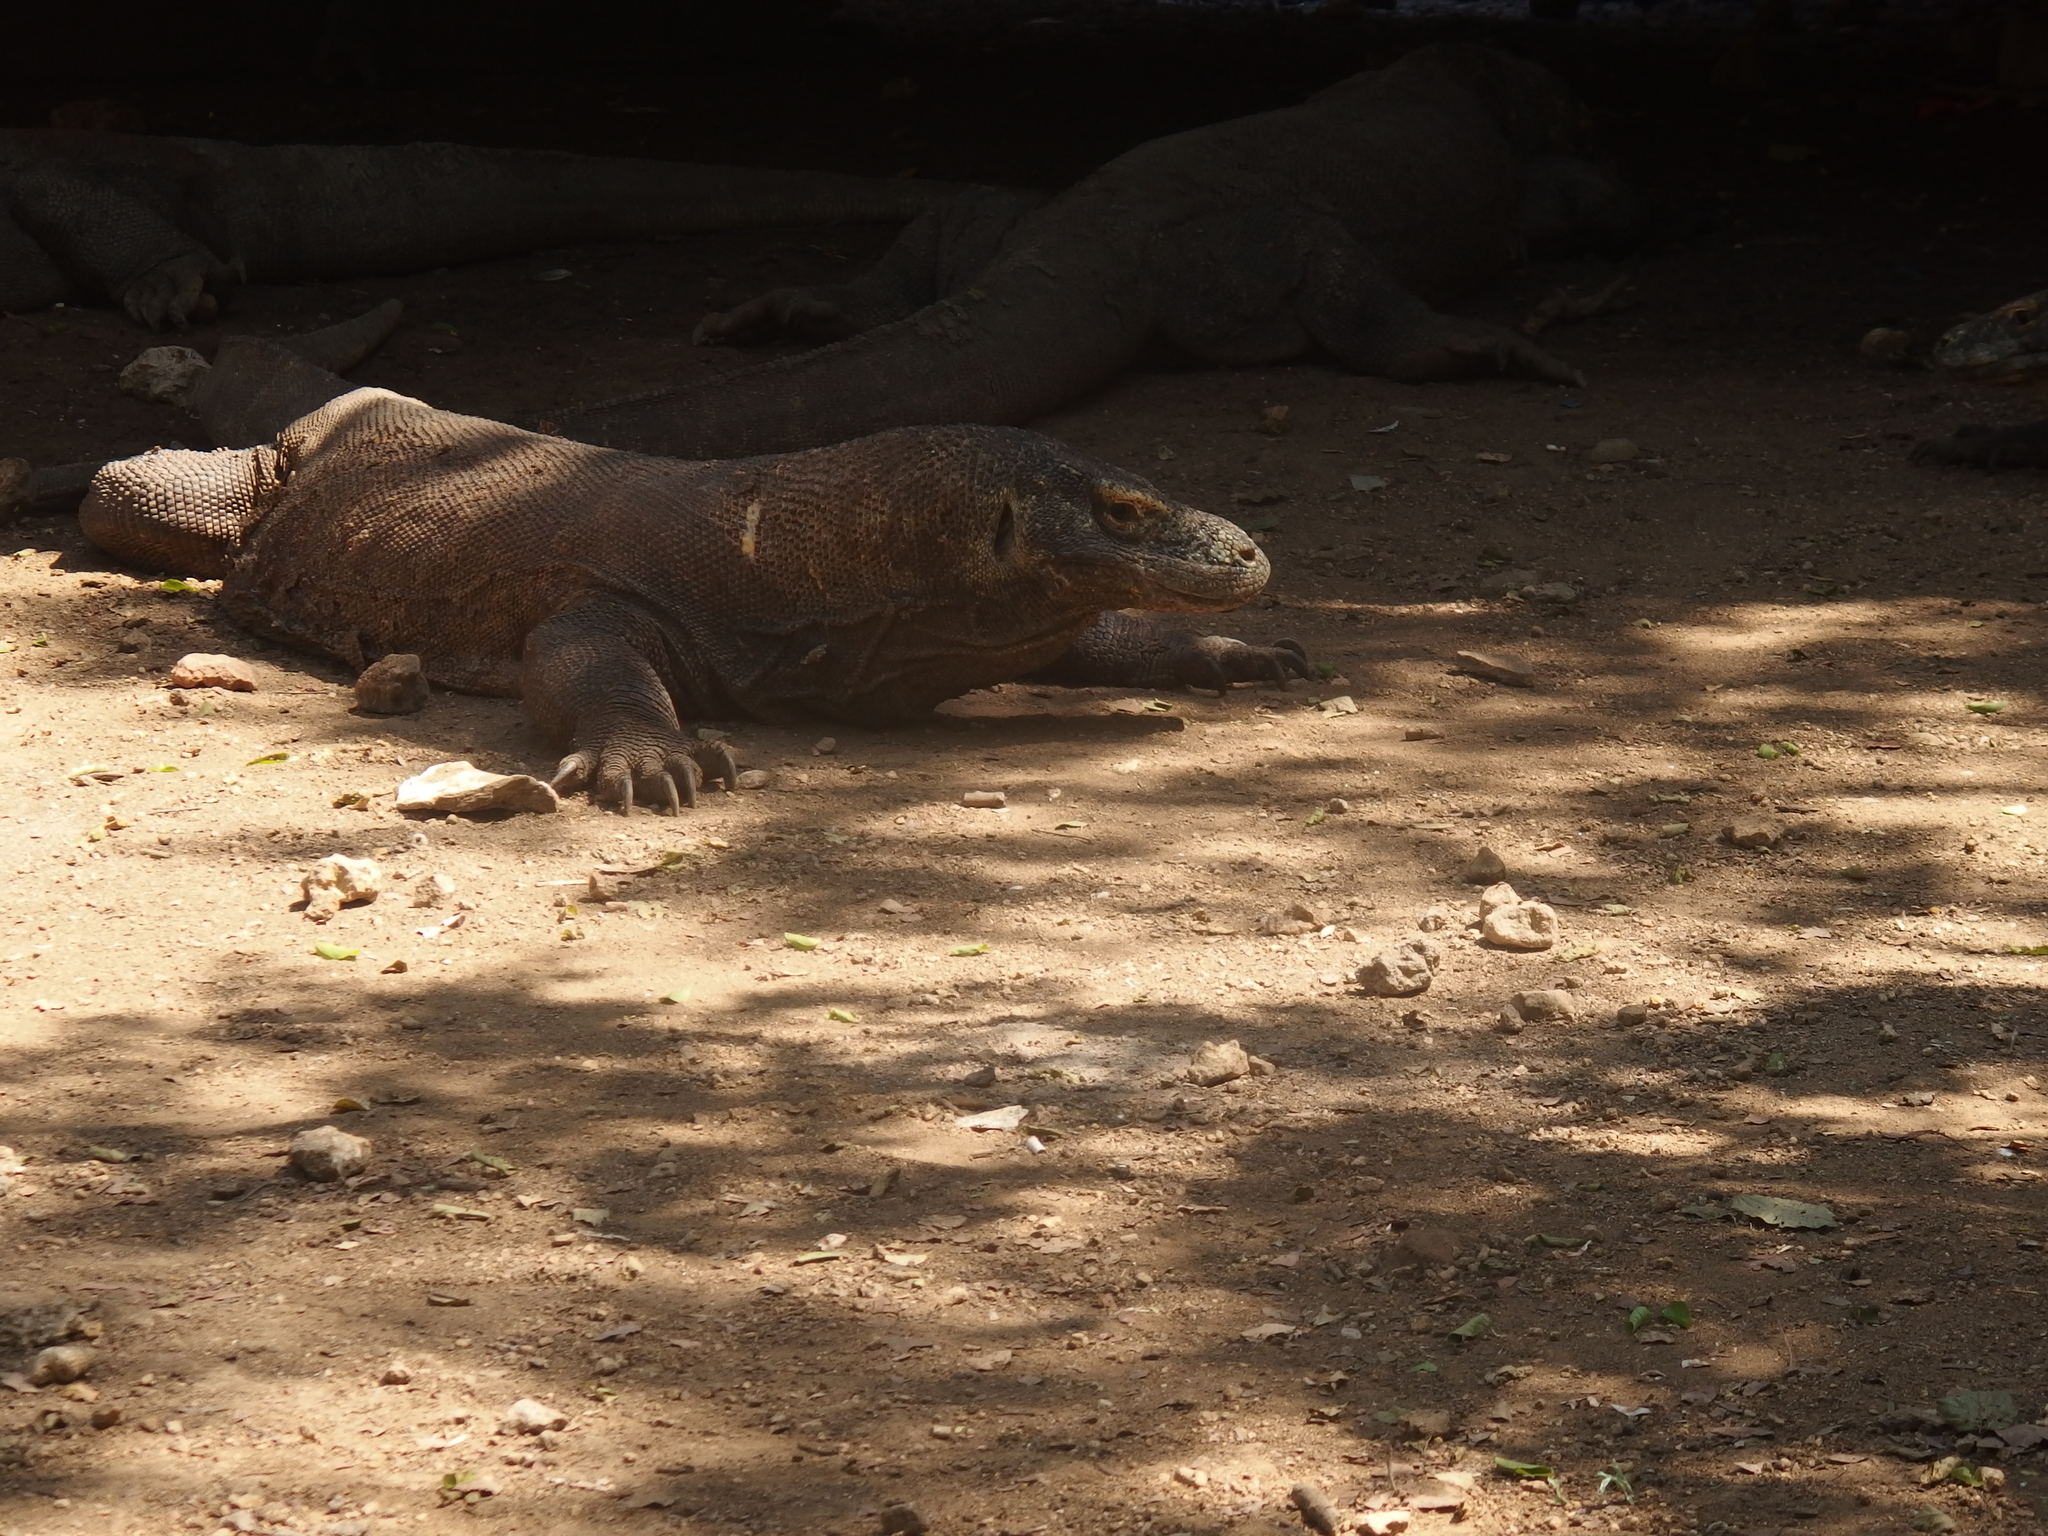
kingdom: Animalia
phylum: Chordata
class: Squamata
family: Varanidae
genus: Varanus
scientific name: Varanus komodoensis
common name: Komodo dragon
